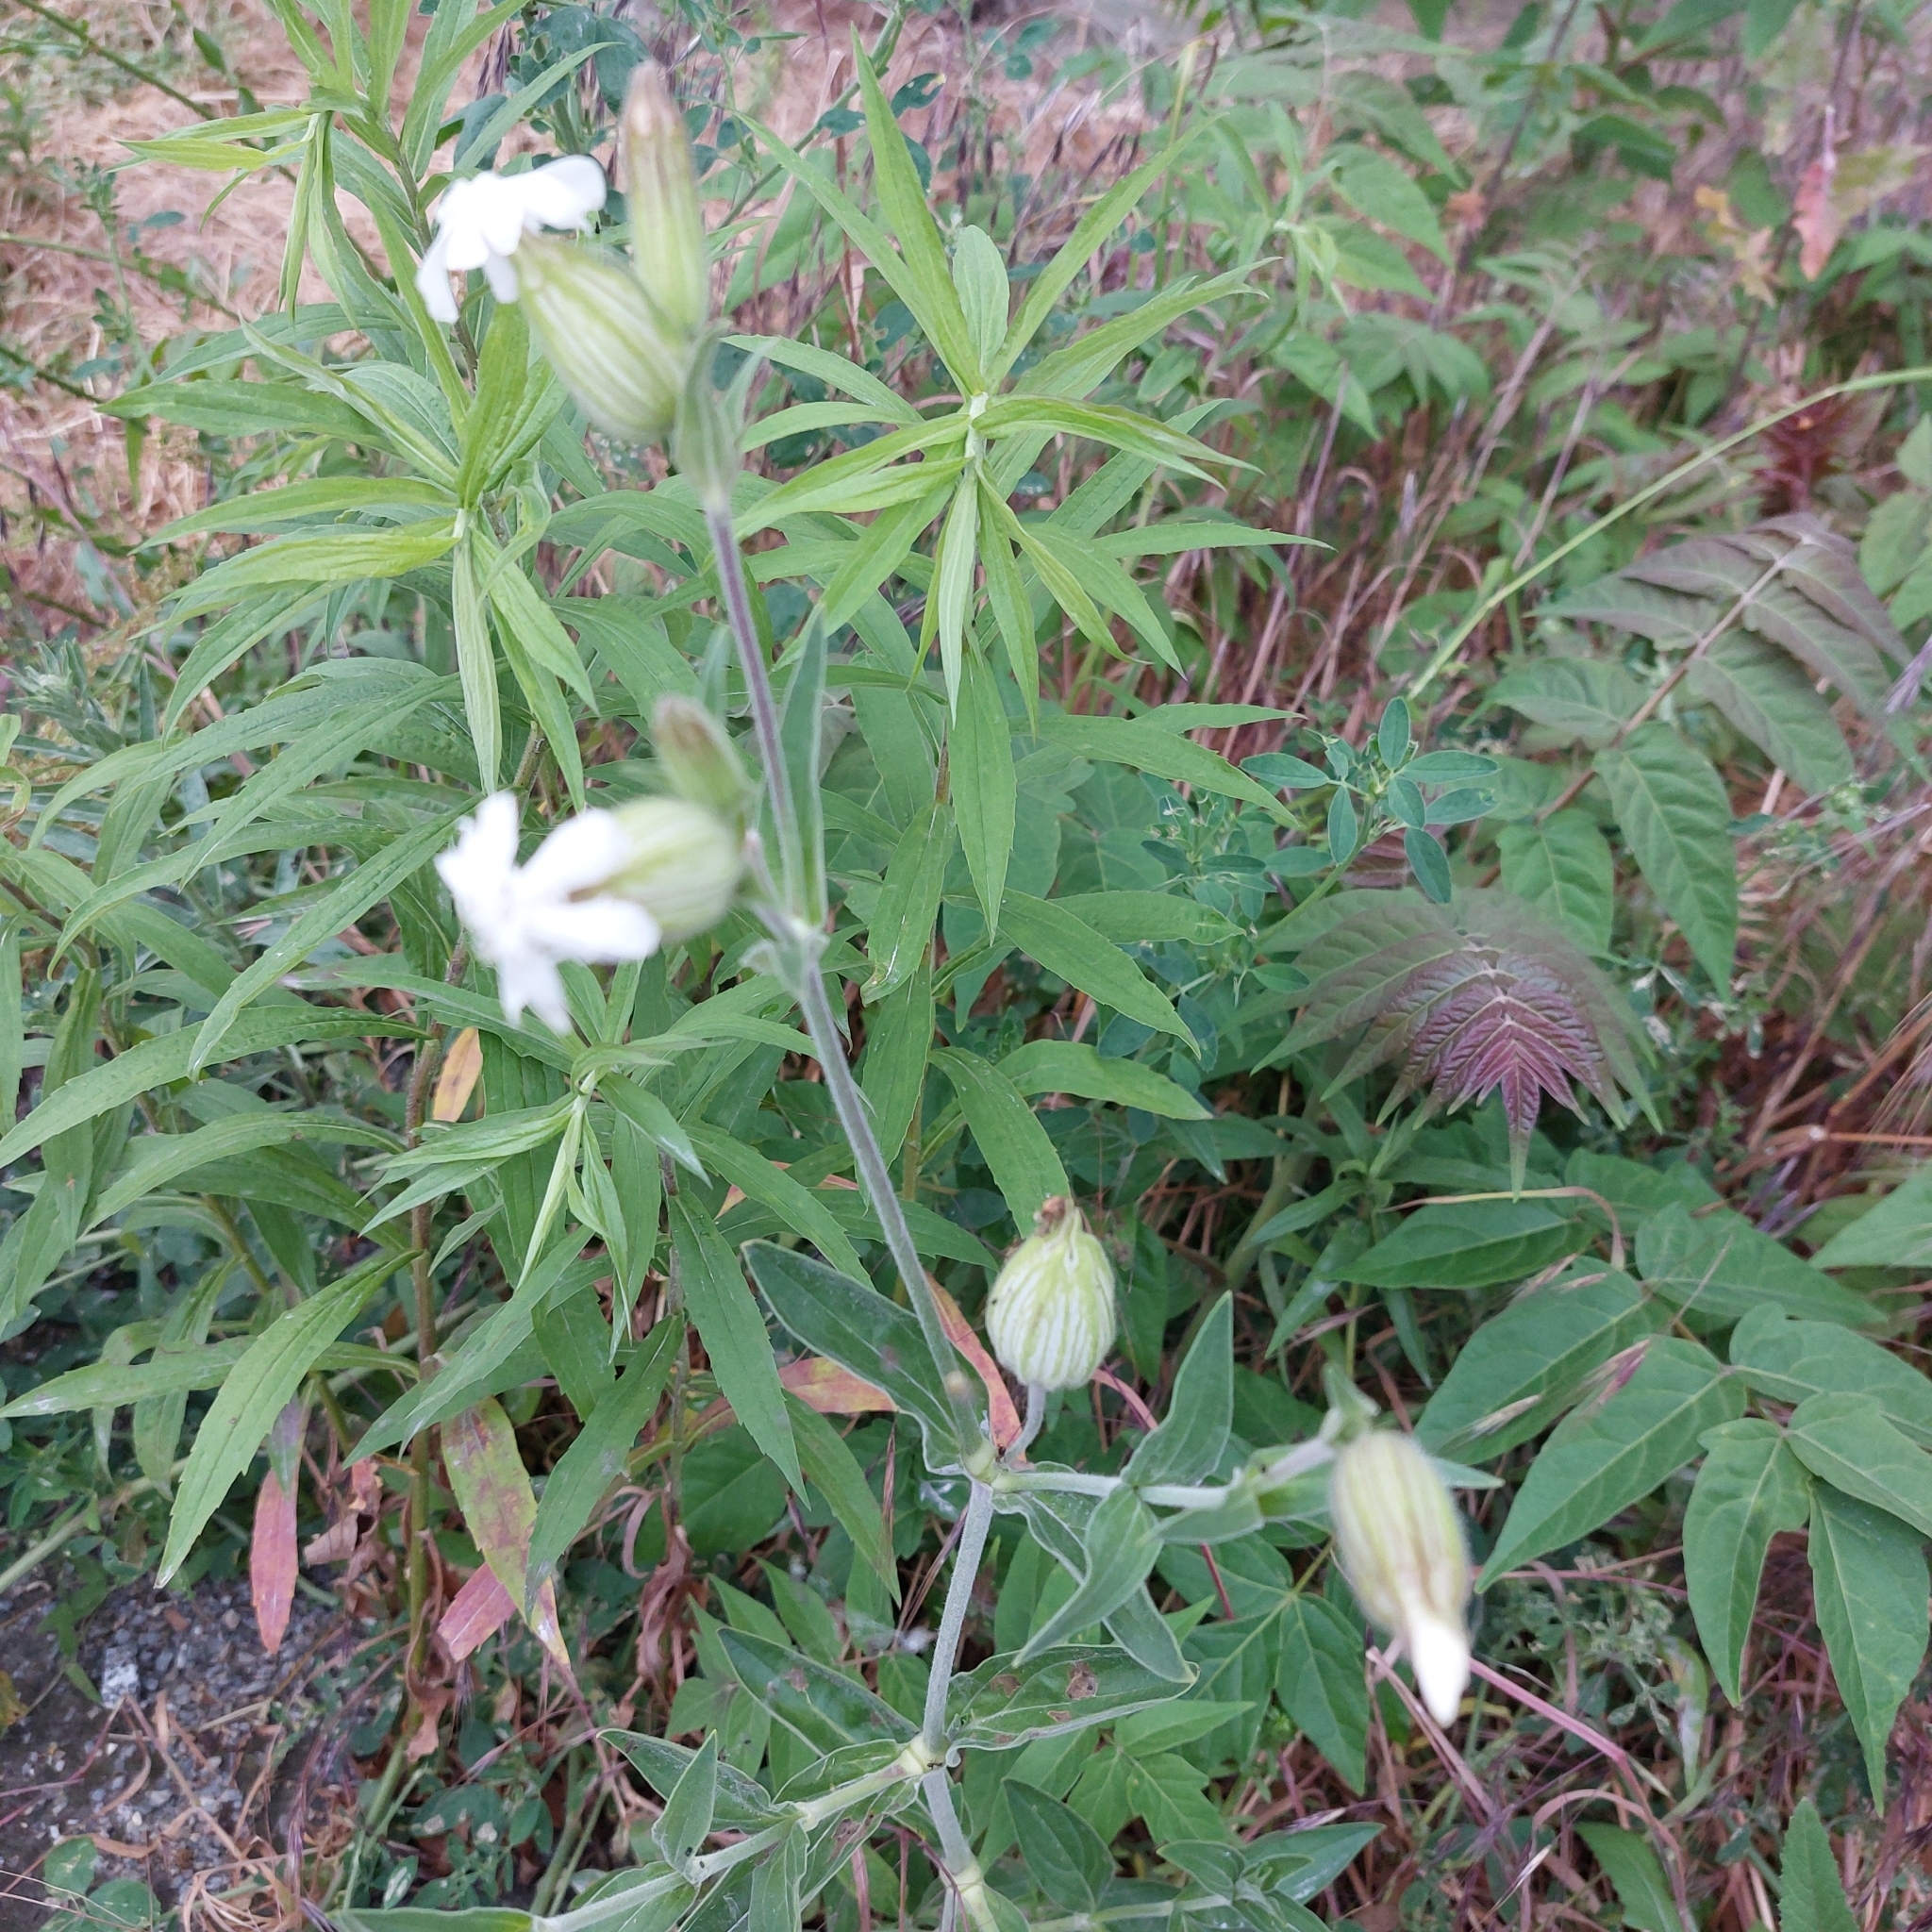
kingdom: Plantae
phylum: Tracheophyta
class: Magnoliopsida
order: Caryophyllales
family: Caryophyllaceae
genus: Silene
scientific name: Silene latifolia
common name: White campion
